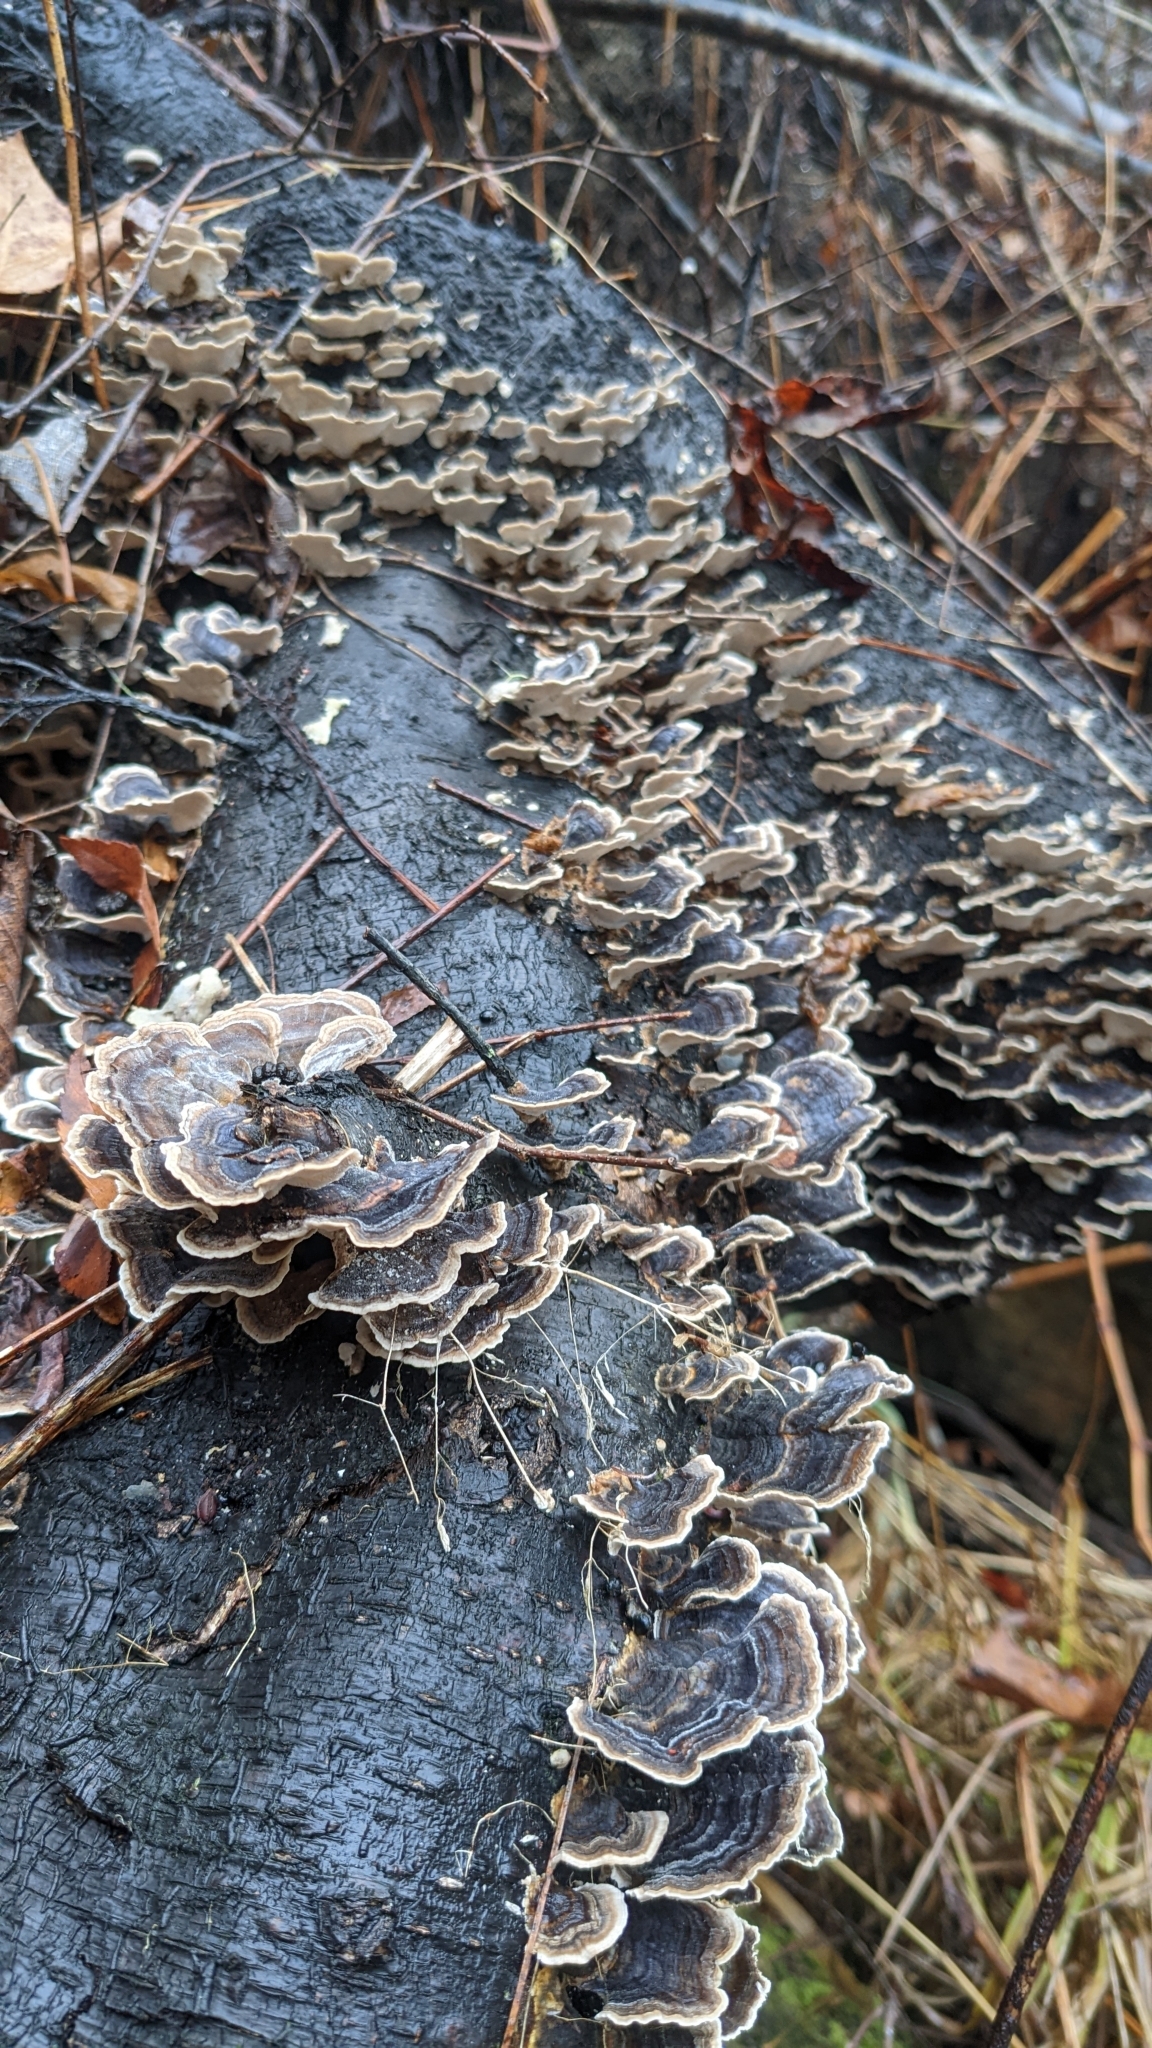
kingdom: Fungi
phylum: Basidiomycota
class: Agaricomycetes
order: Polyporales
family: Polyporaceae
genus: Trametes
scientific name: Trametes versicolor
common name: Turkeytail
